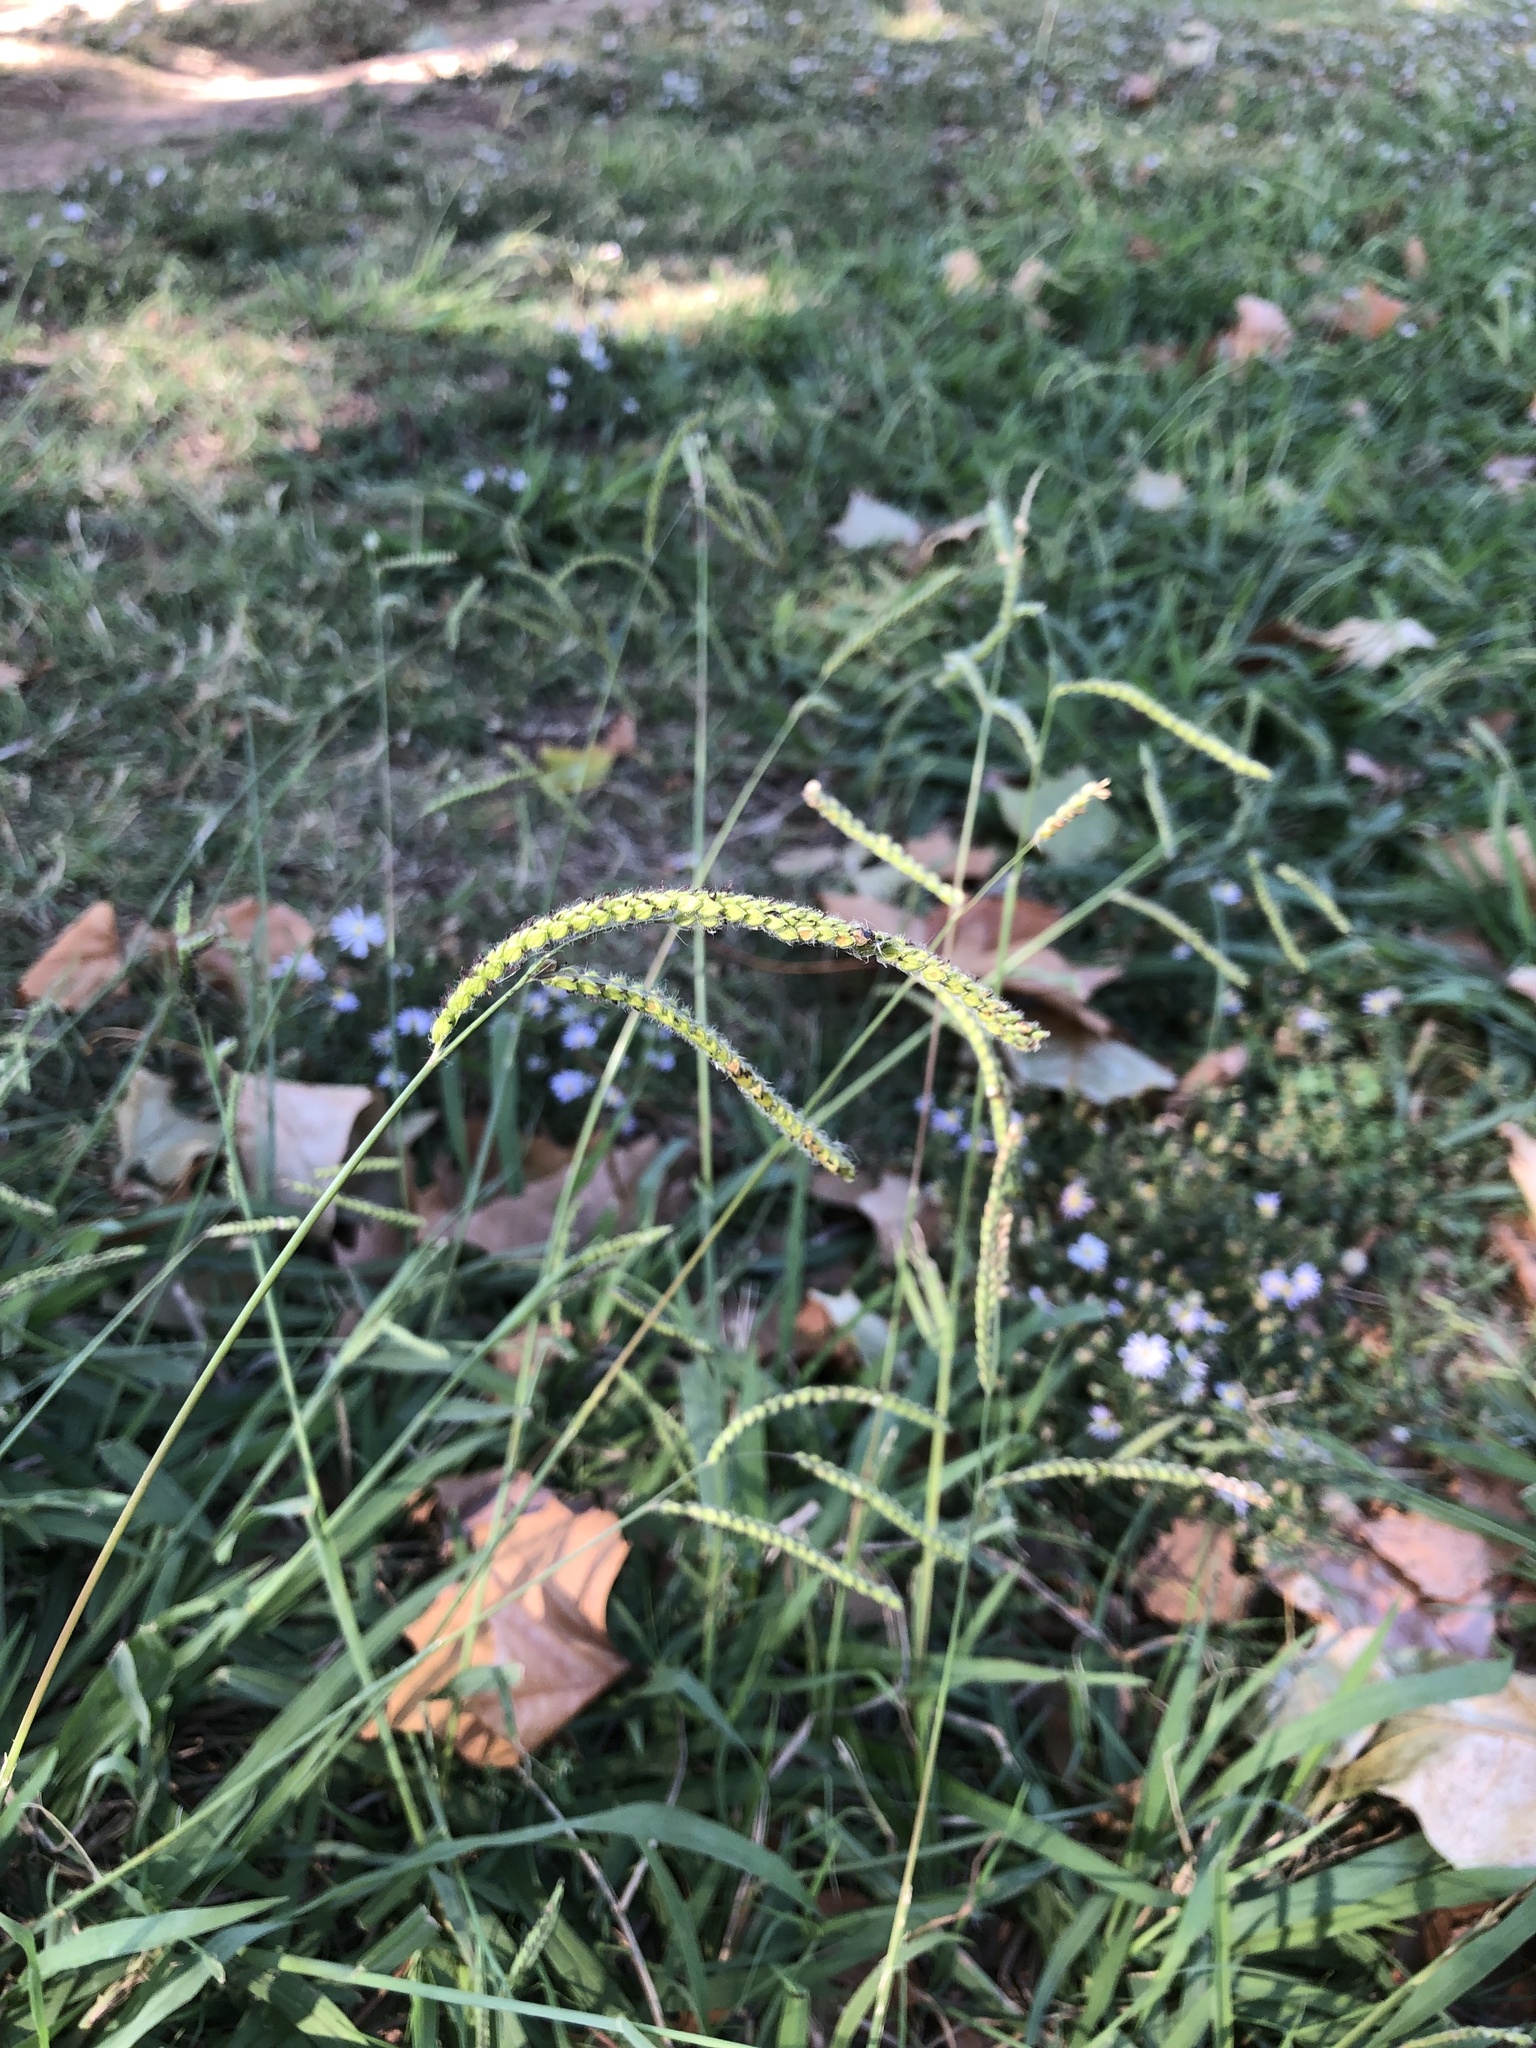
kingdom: Plantae
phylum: Tracheophyta
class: Liliopsida
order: Poales
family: Poaceae
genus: Paspalum
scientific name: Paspalum dilatatum
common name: Dallisgrass
